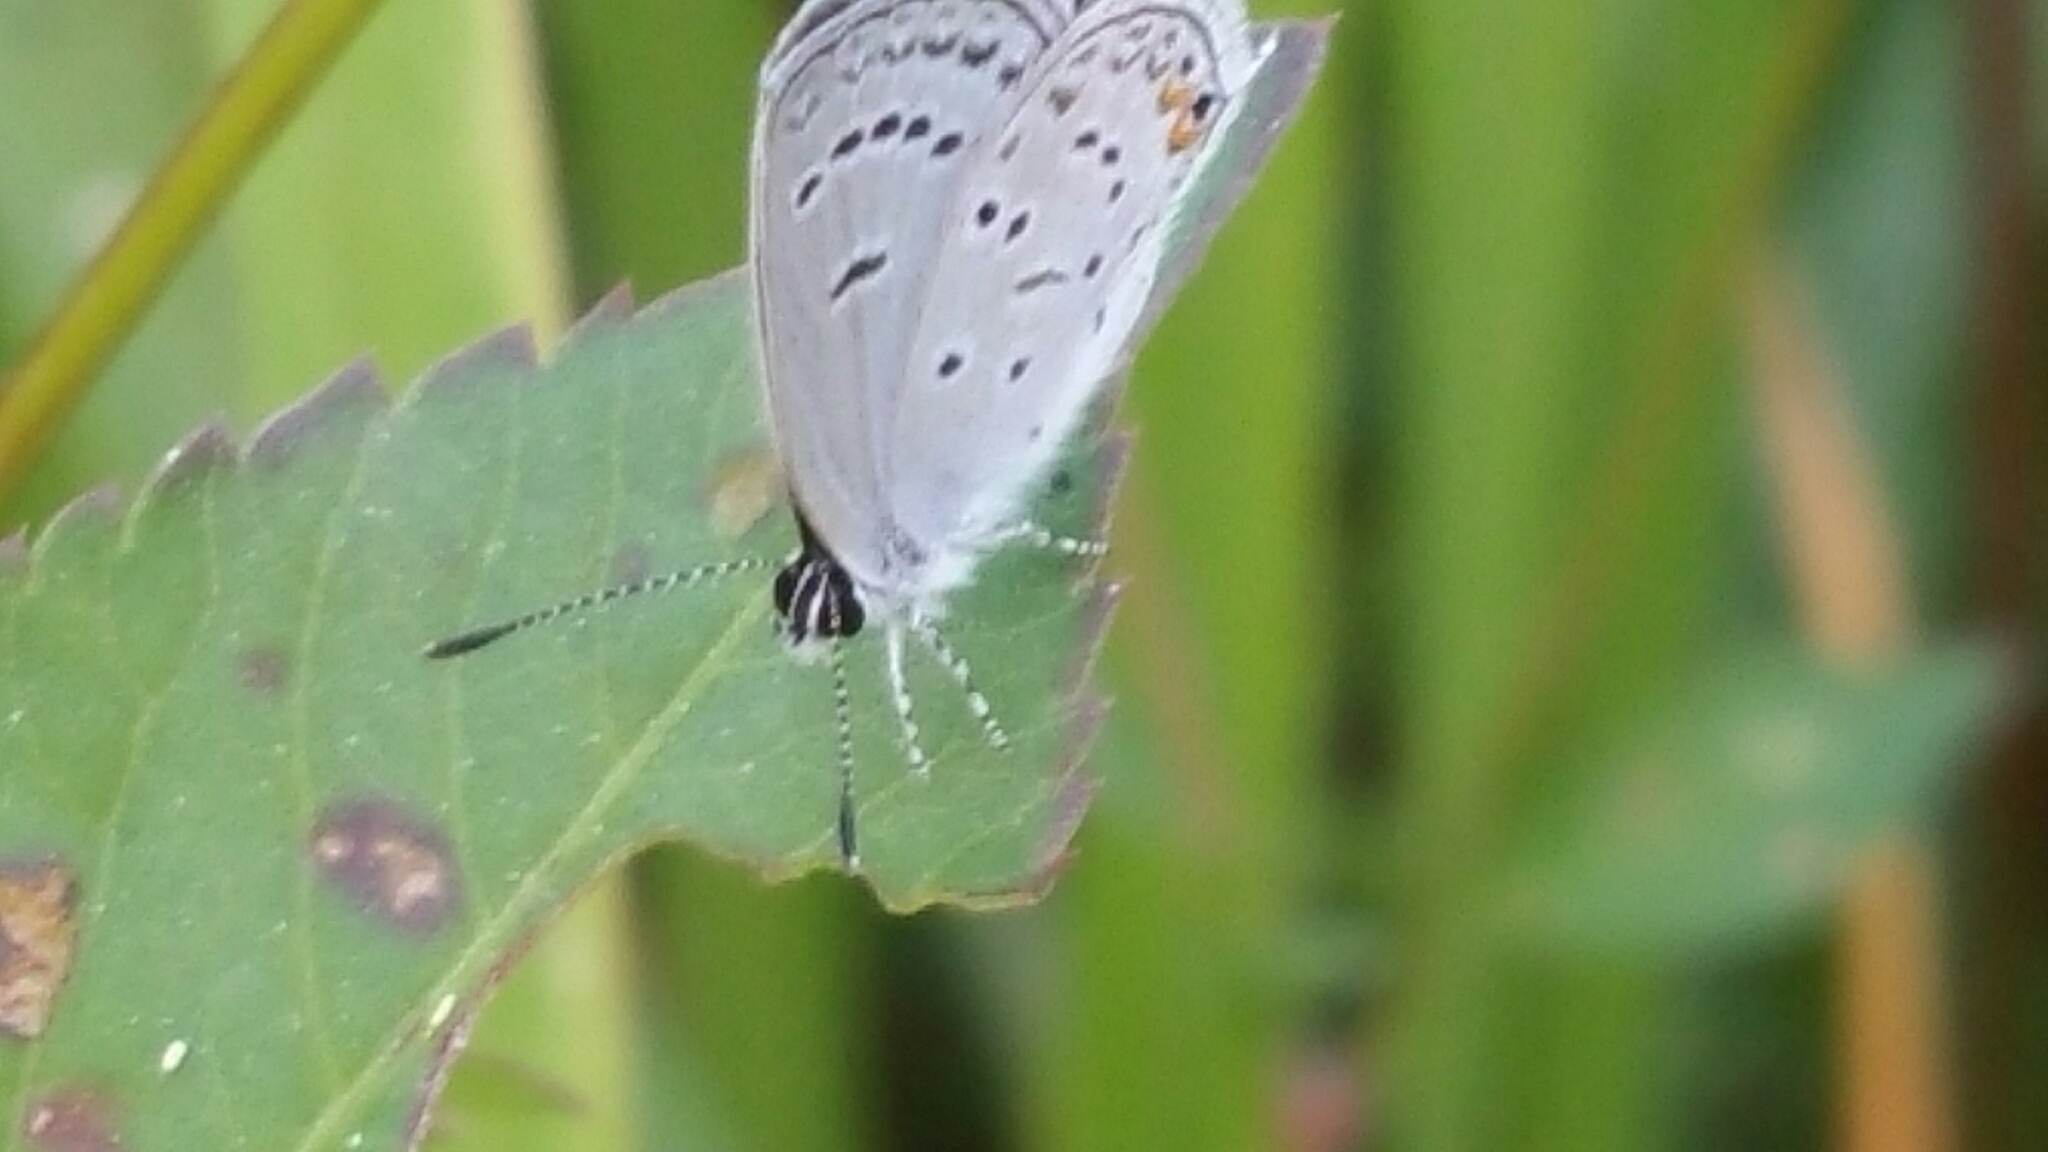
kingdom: Animalia
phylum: Arthropoda
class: Insecta
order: Lepidoptera
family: Lycaenidae
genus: Elkalyce
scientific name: Elkalyce comyntas
